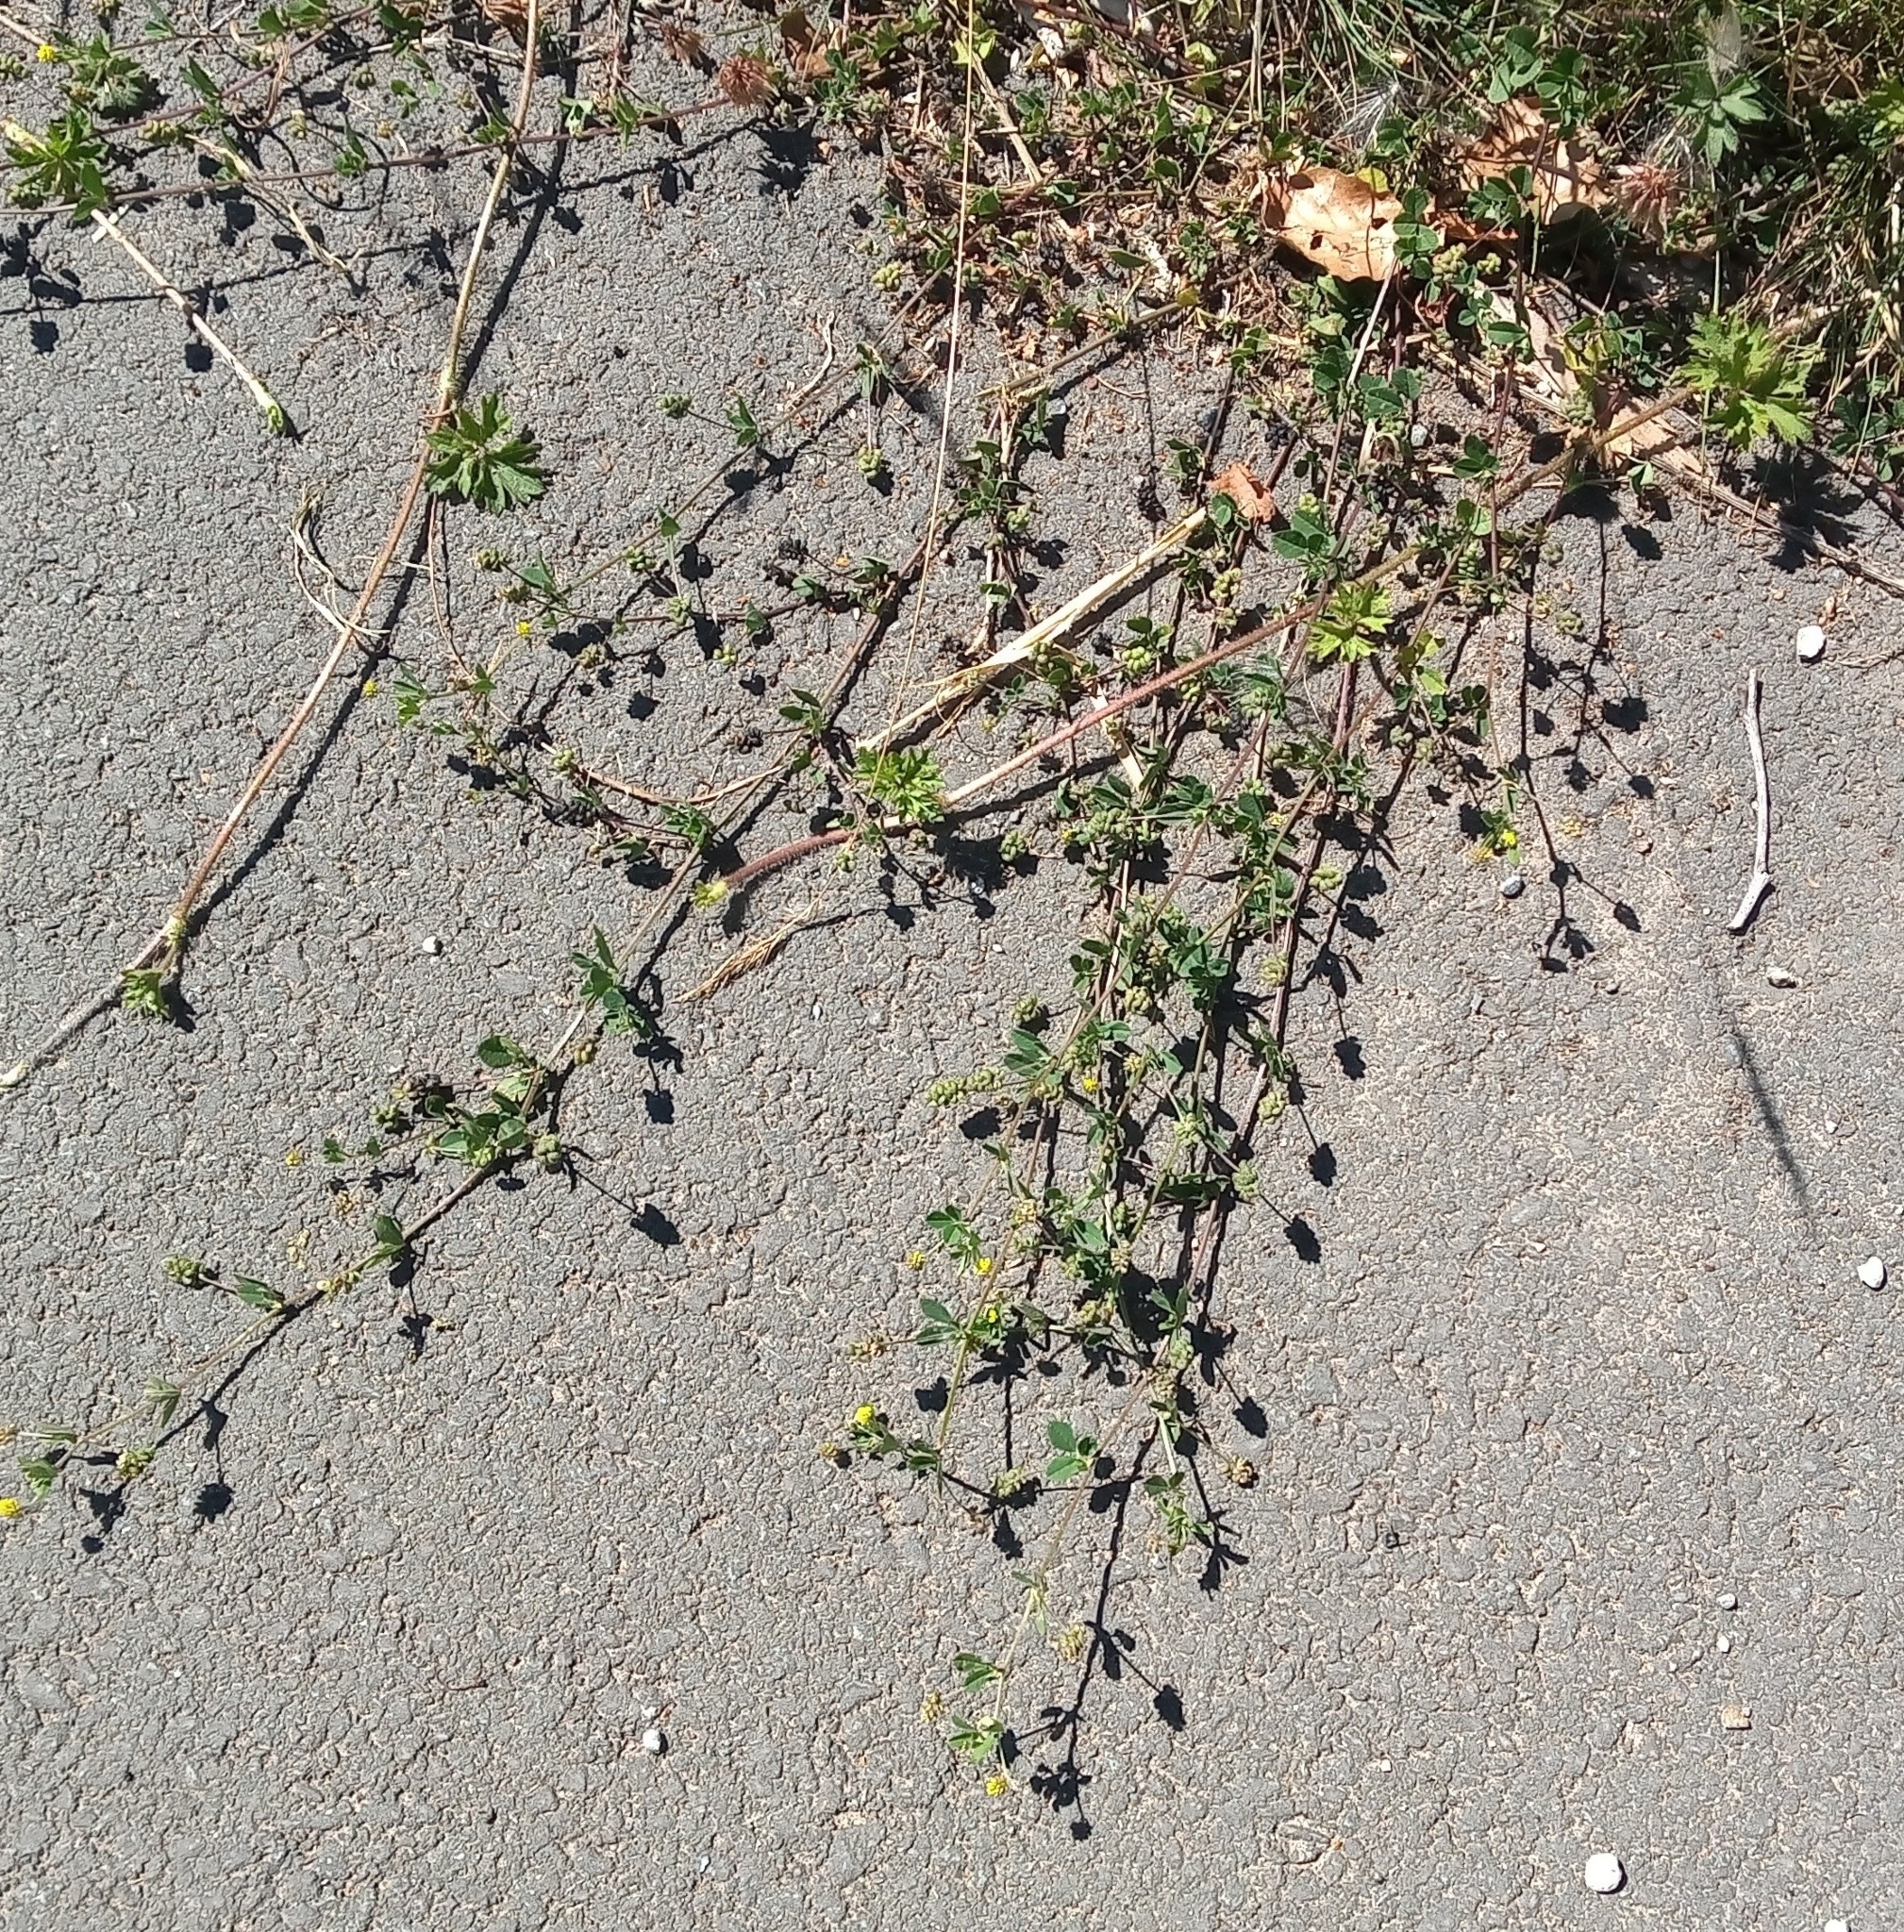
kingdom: Plantae
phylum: Tracheophyta
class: Magnoliopsida
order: Fabales
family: Fabaceae
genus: Medicago
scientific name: Medicago lupulina
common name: Black medick
